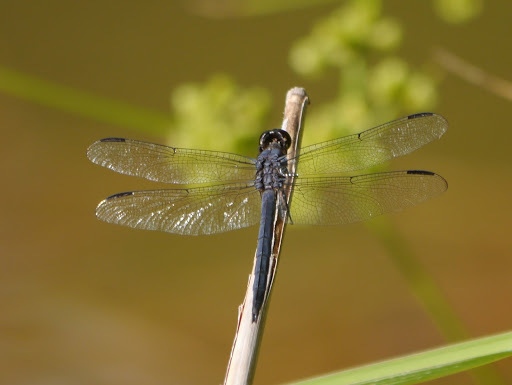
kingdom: Animalia
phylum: Arthropoda
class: Insecta
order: Odonata
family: Libellulidae
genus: Libellula
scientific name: Libellula incesta
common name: Slaty skimmer
